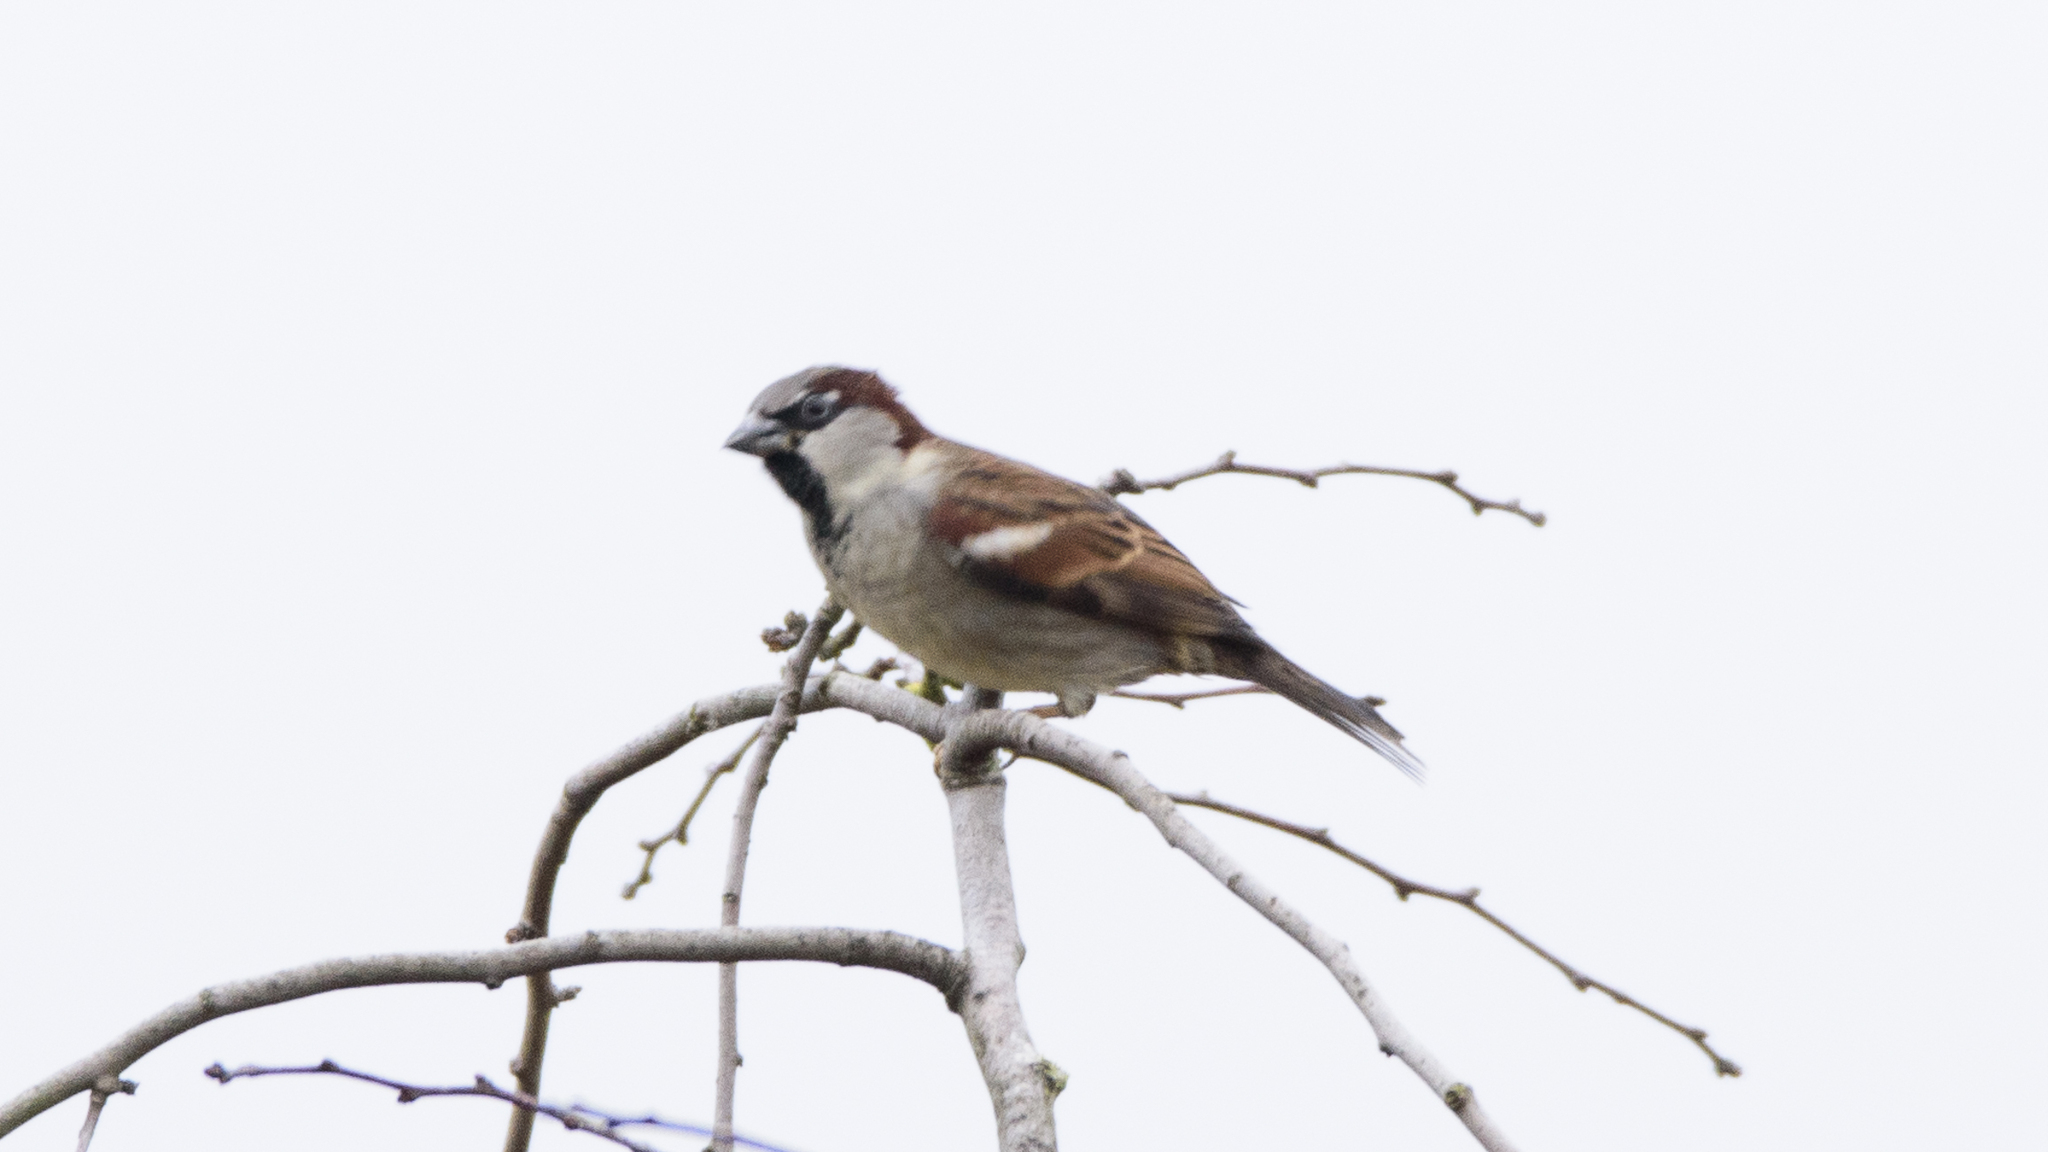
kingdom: Animalia
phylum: Chordata
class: Aves
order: Passeriformes
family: Passeridae
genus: Passer
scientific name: Passer domesticus
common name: House sparrow
